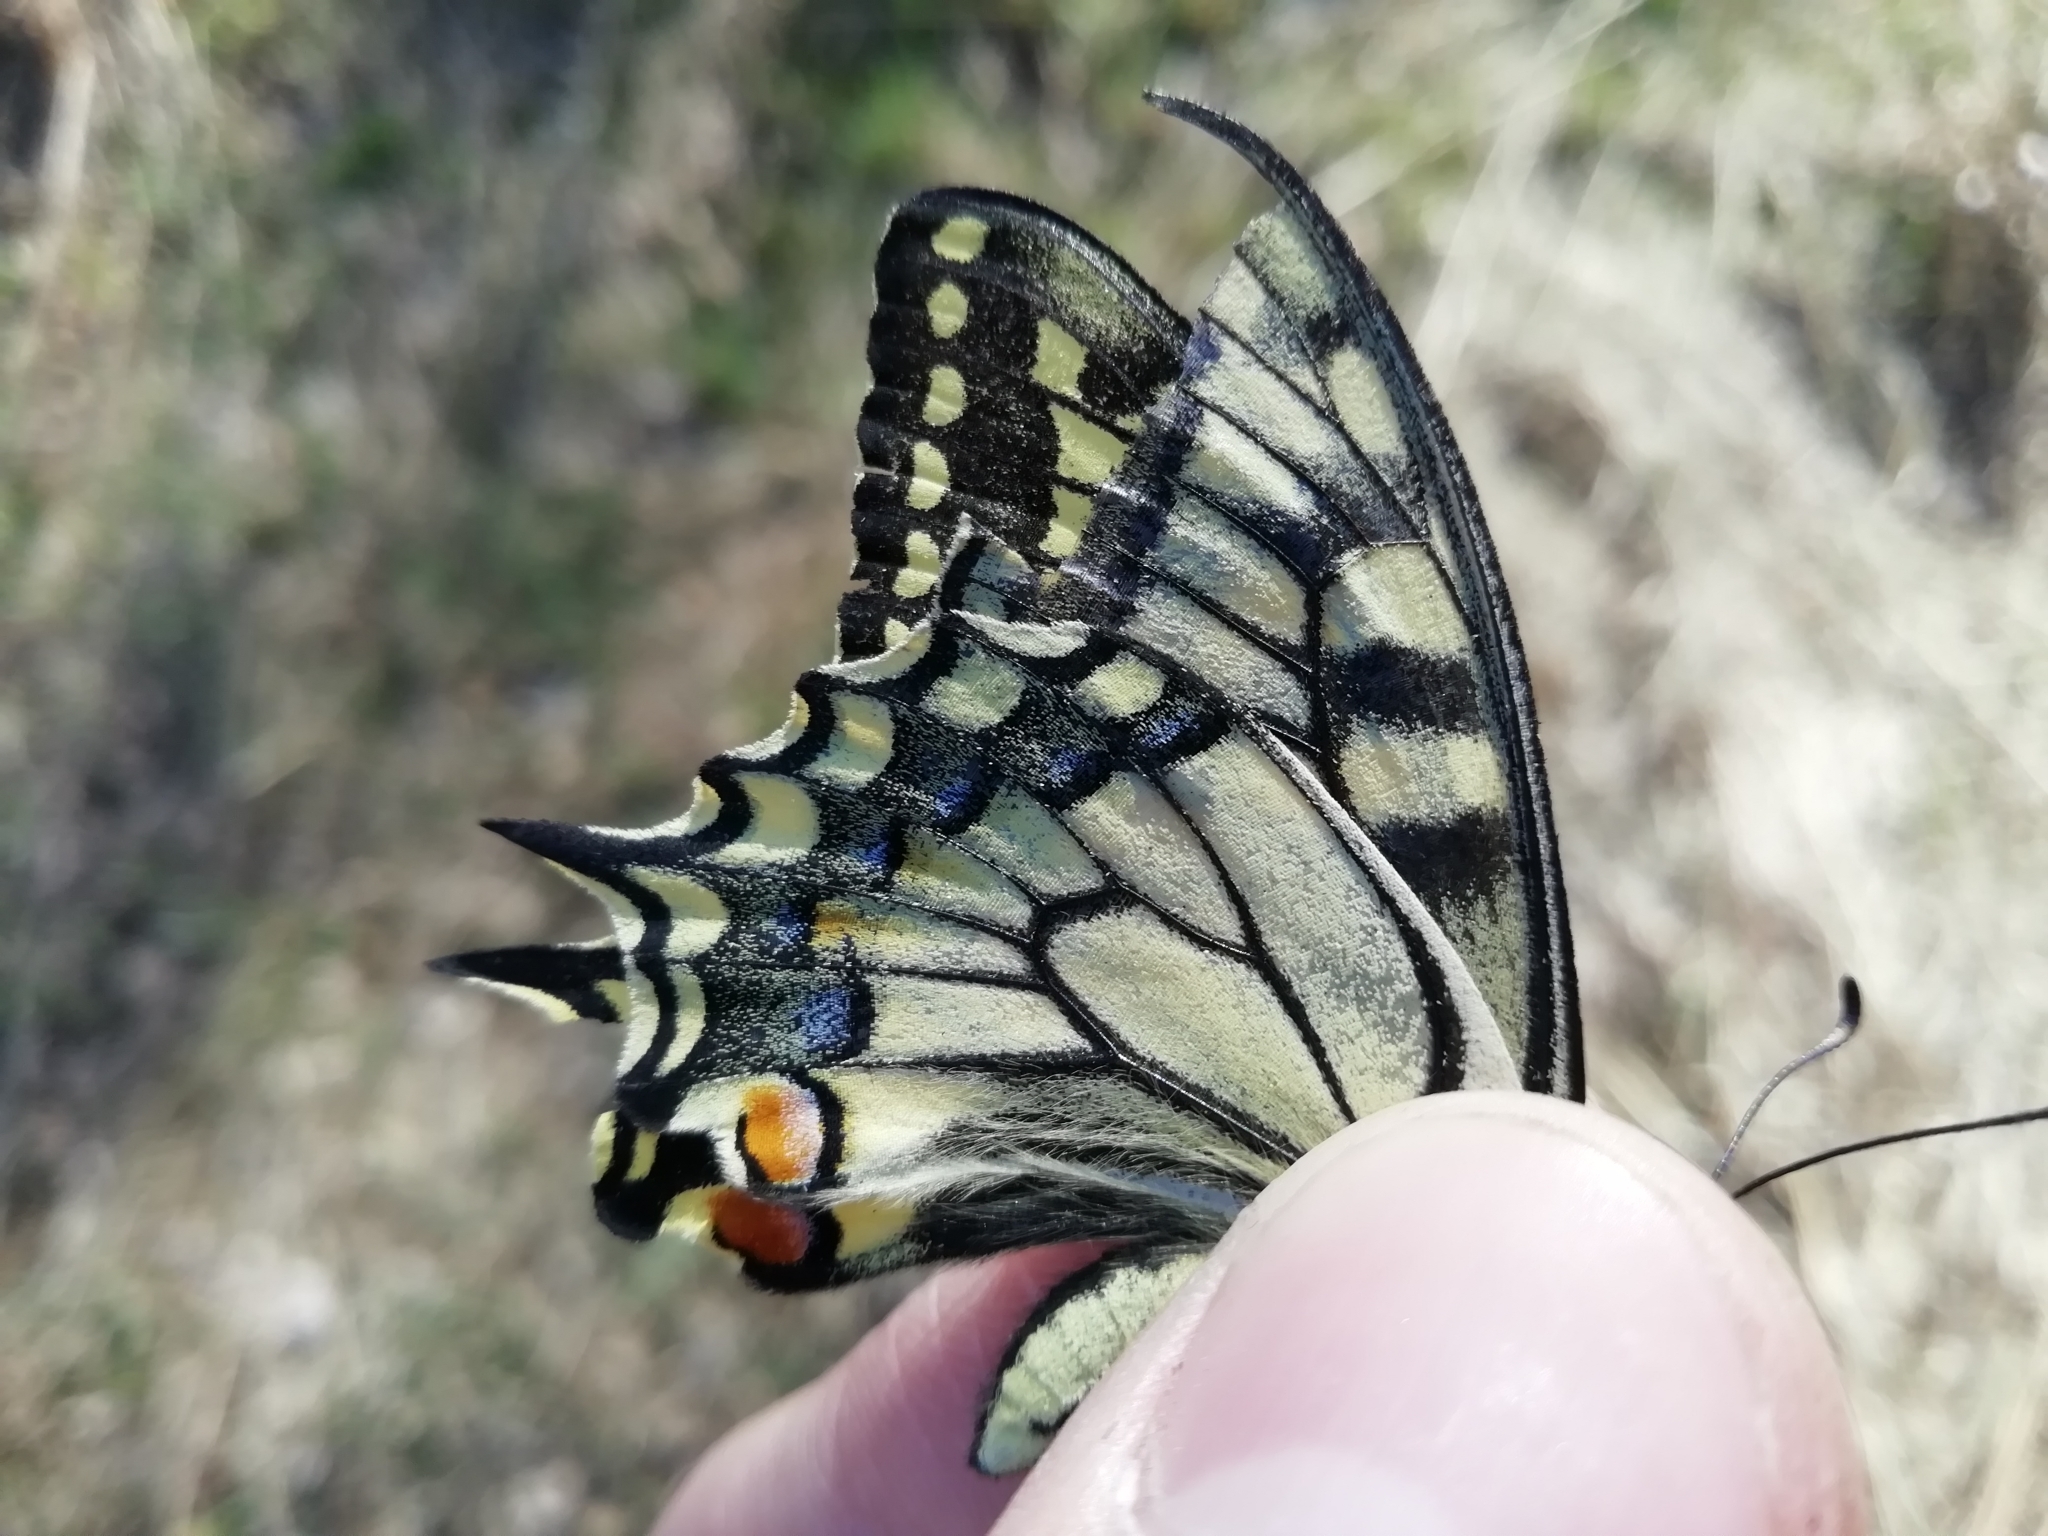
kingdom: Animalia
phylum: Arthropoda
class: Insecta
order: Lepidoptera
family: Papilionidae
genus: Papilio
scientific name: Papilio machaon
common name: Swallowtail
